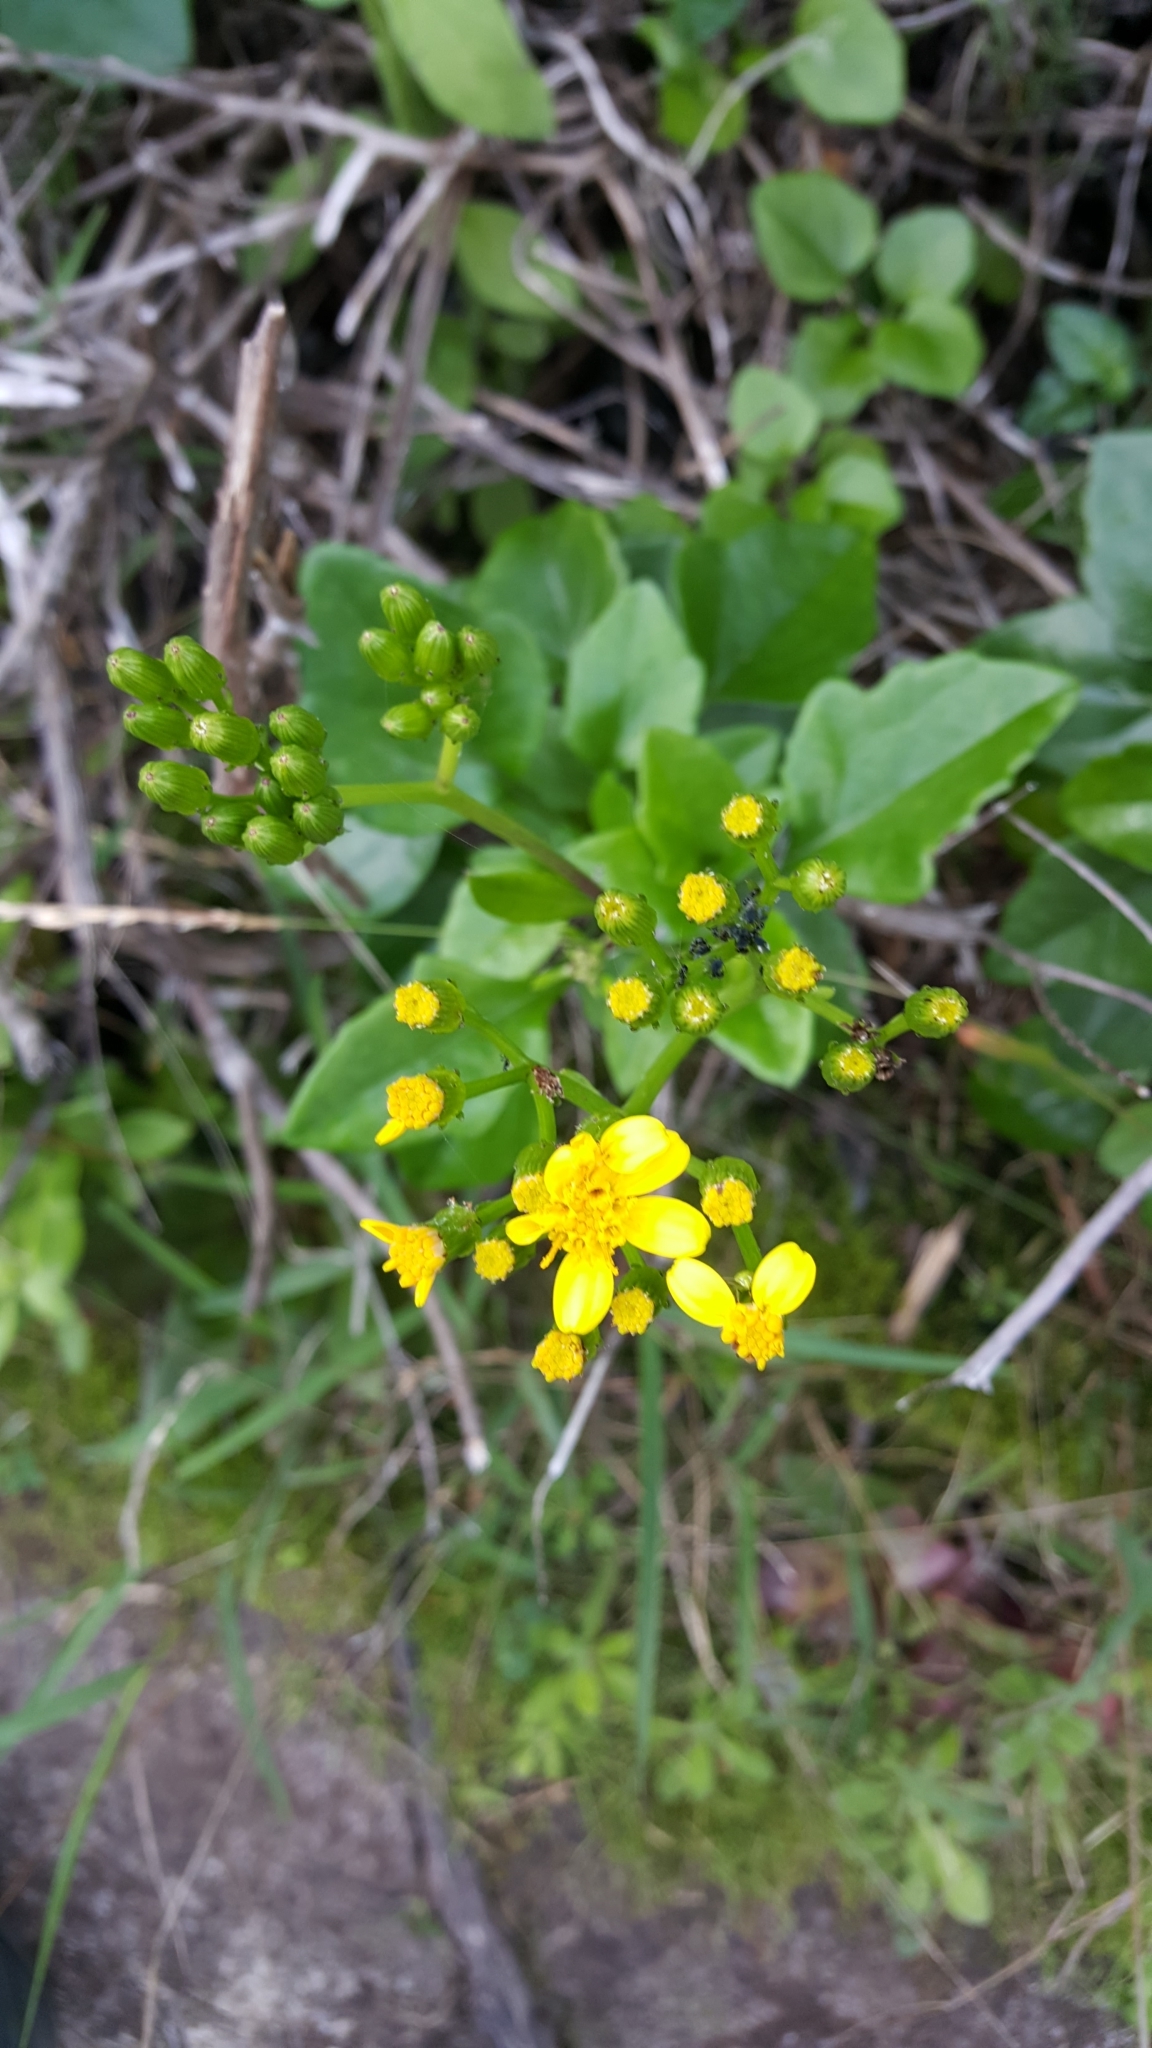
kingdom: Plantae
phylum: Tracheophyta
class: Magnoliopsida
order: Asterales
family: Asteraceae
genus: Senecio
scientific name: Senecio angulatus
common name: Climbing groundsel
